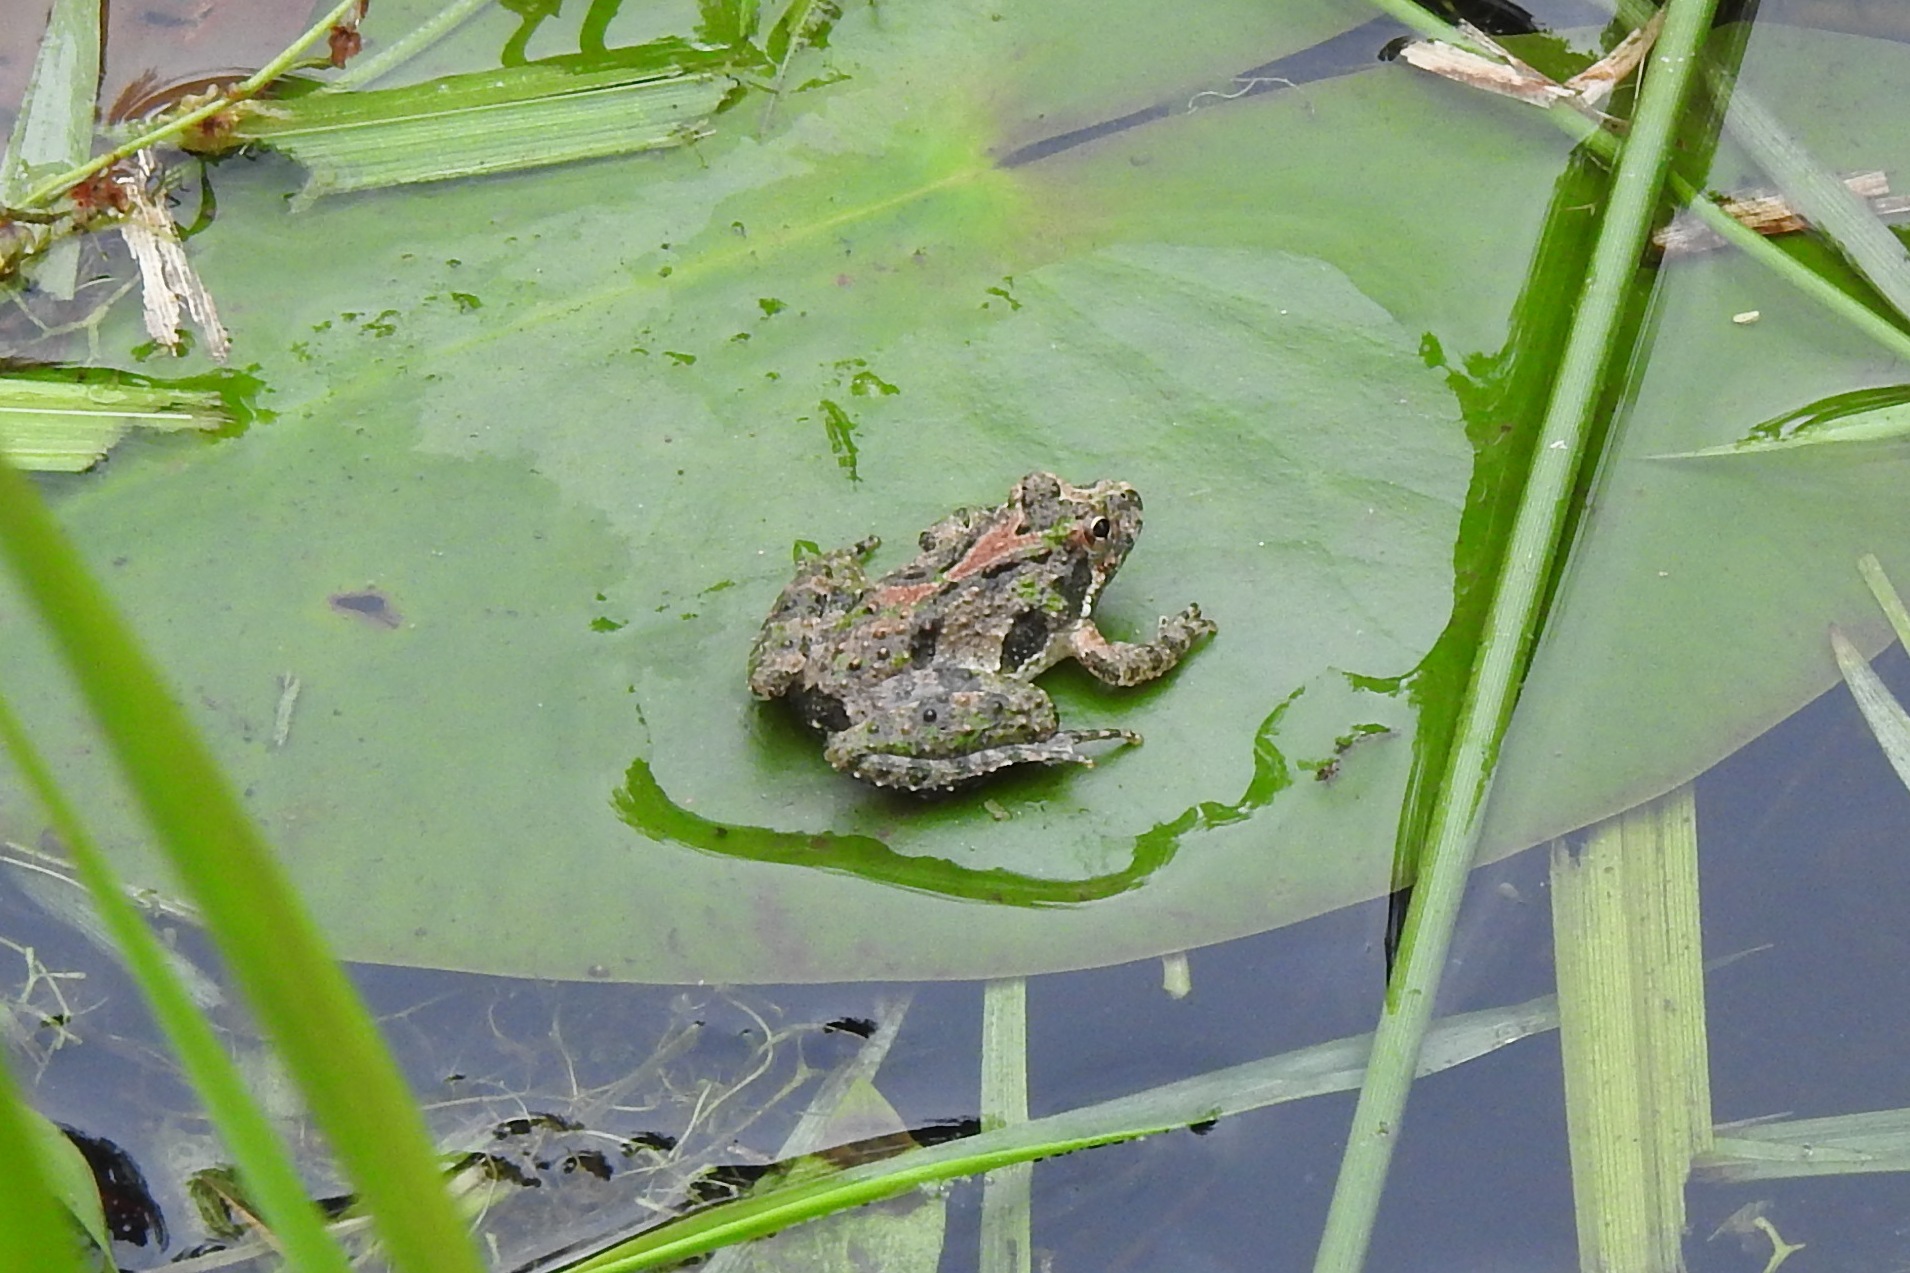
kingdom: Animalia
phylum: Chordata
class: Amphibia
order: Anura
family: Hylidae
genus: Acris
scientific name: Acris crepitans
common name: Northern cricket frog
